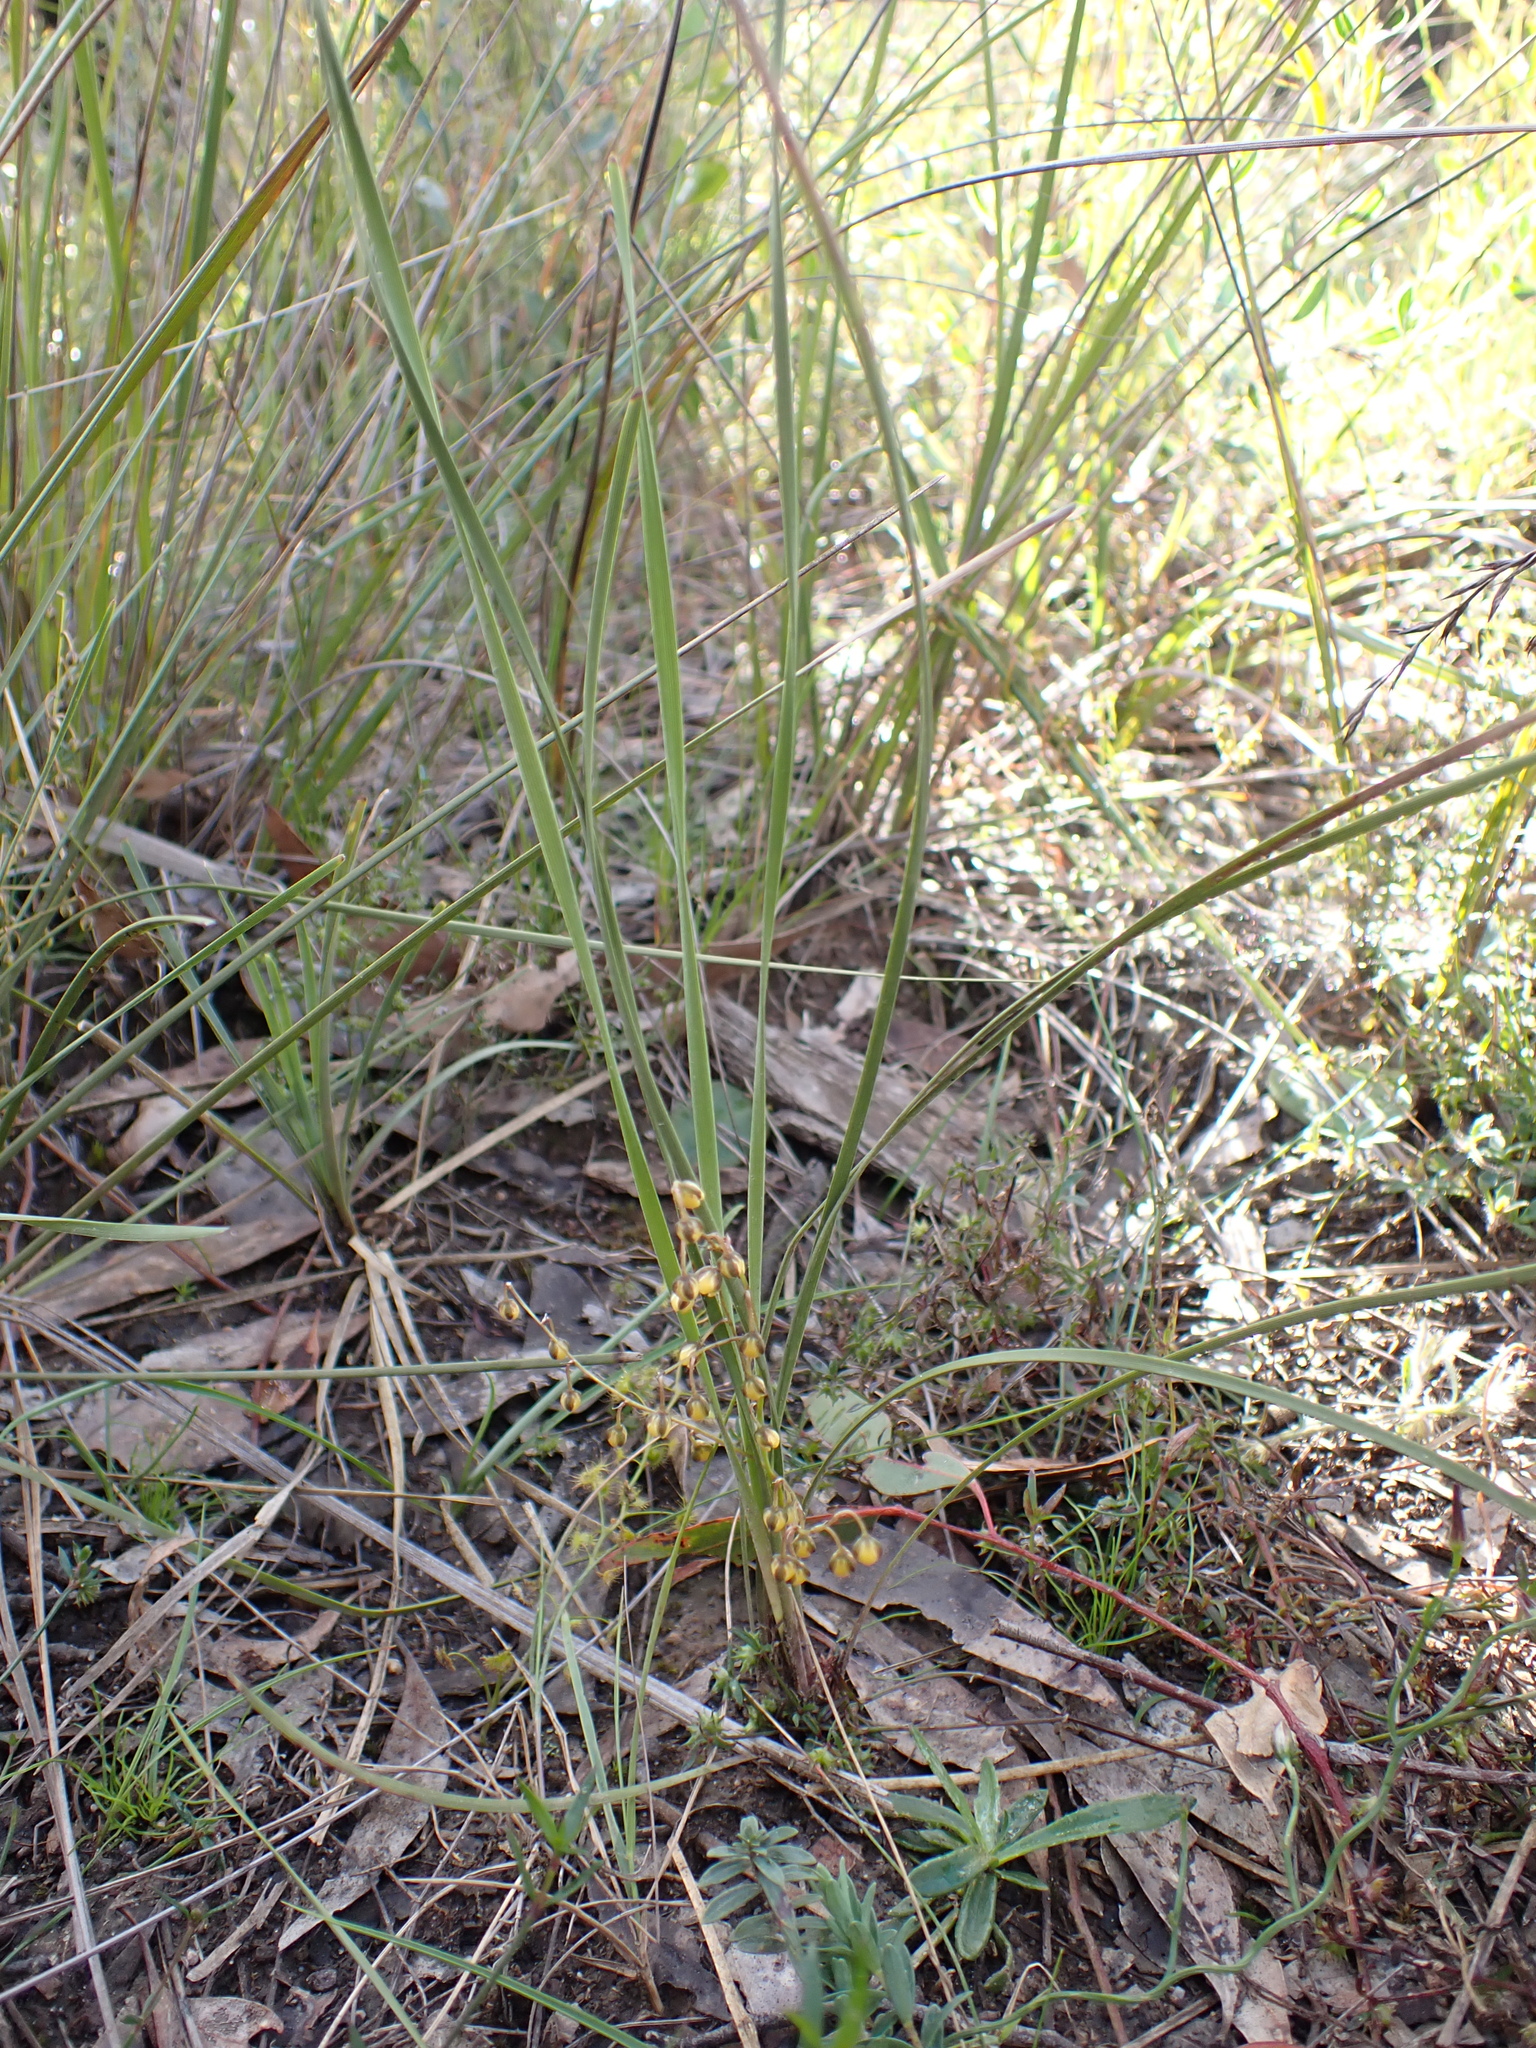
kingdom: Plantae
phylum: Tracheophyta
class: Liliopsida
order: Asparagales
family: Asparagaceae
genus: Lomandra
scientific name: Lomandra filiformis
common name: Wattle mat-rush
